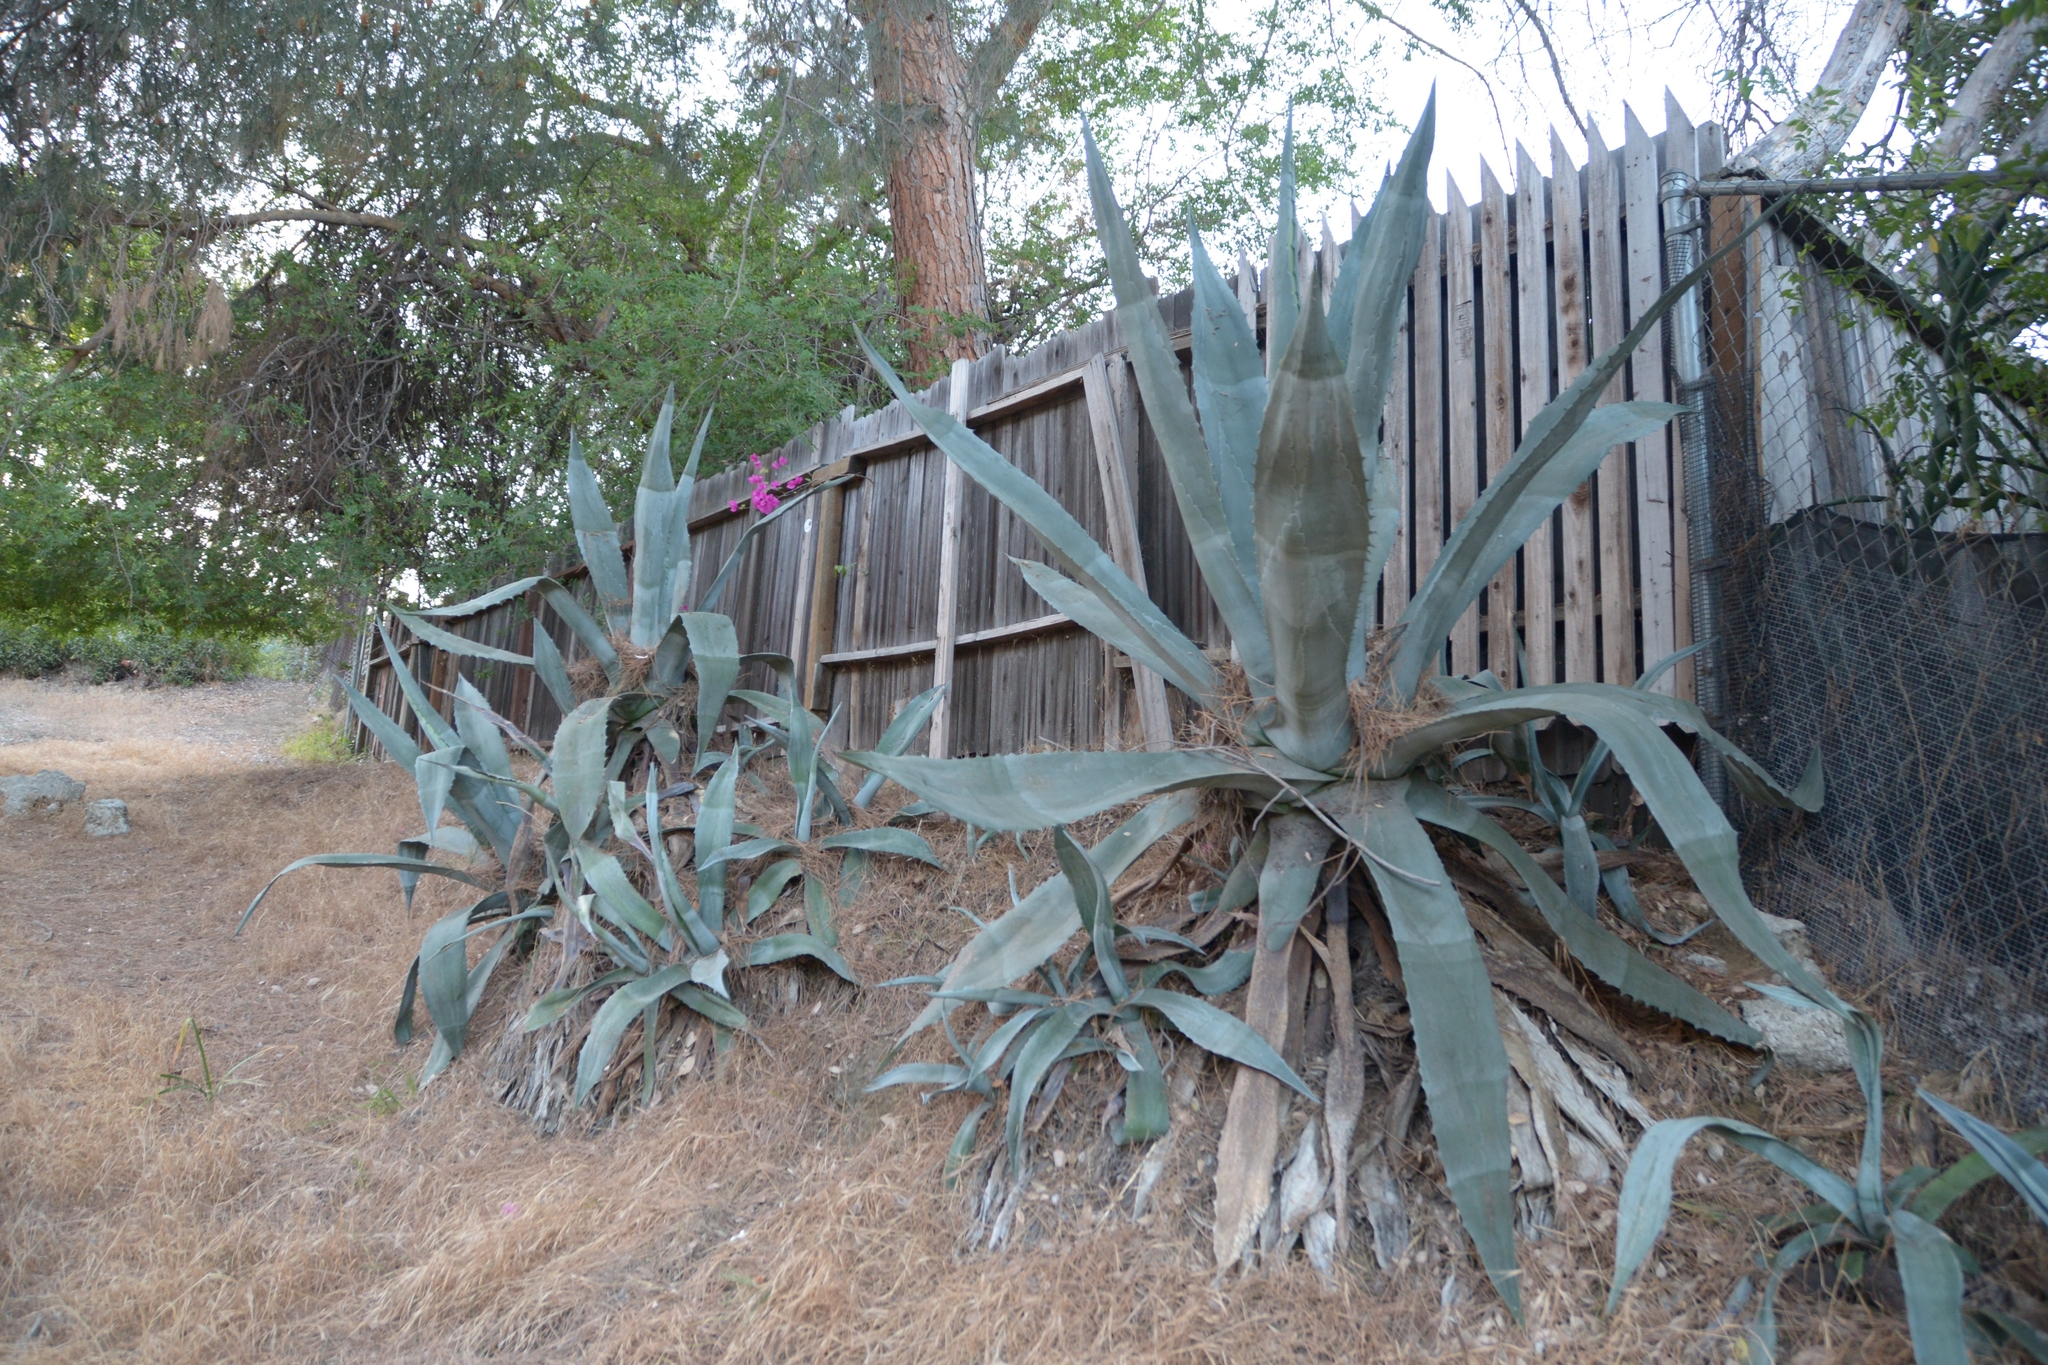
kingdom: Plantae
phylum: Tracheophyta
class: Liliopsida
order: Asparagales
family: Asparagaceae
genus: Agave
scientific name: Agave americana
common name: Centuryplant
